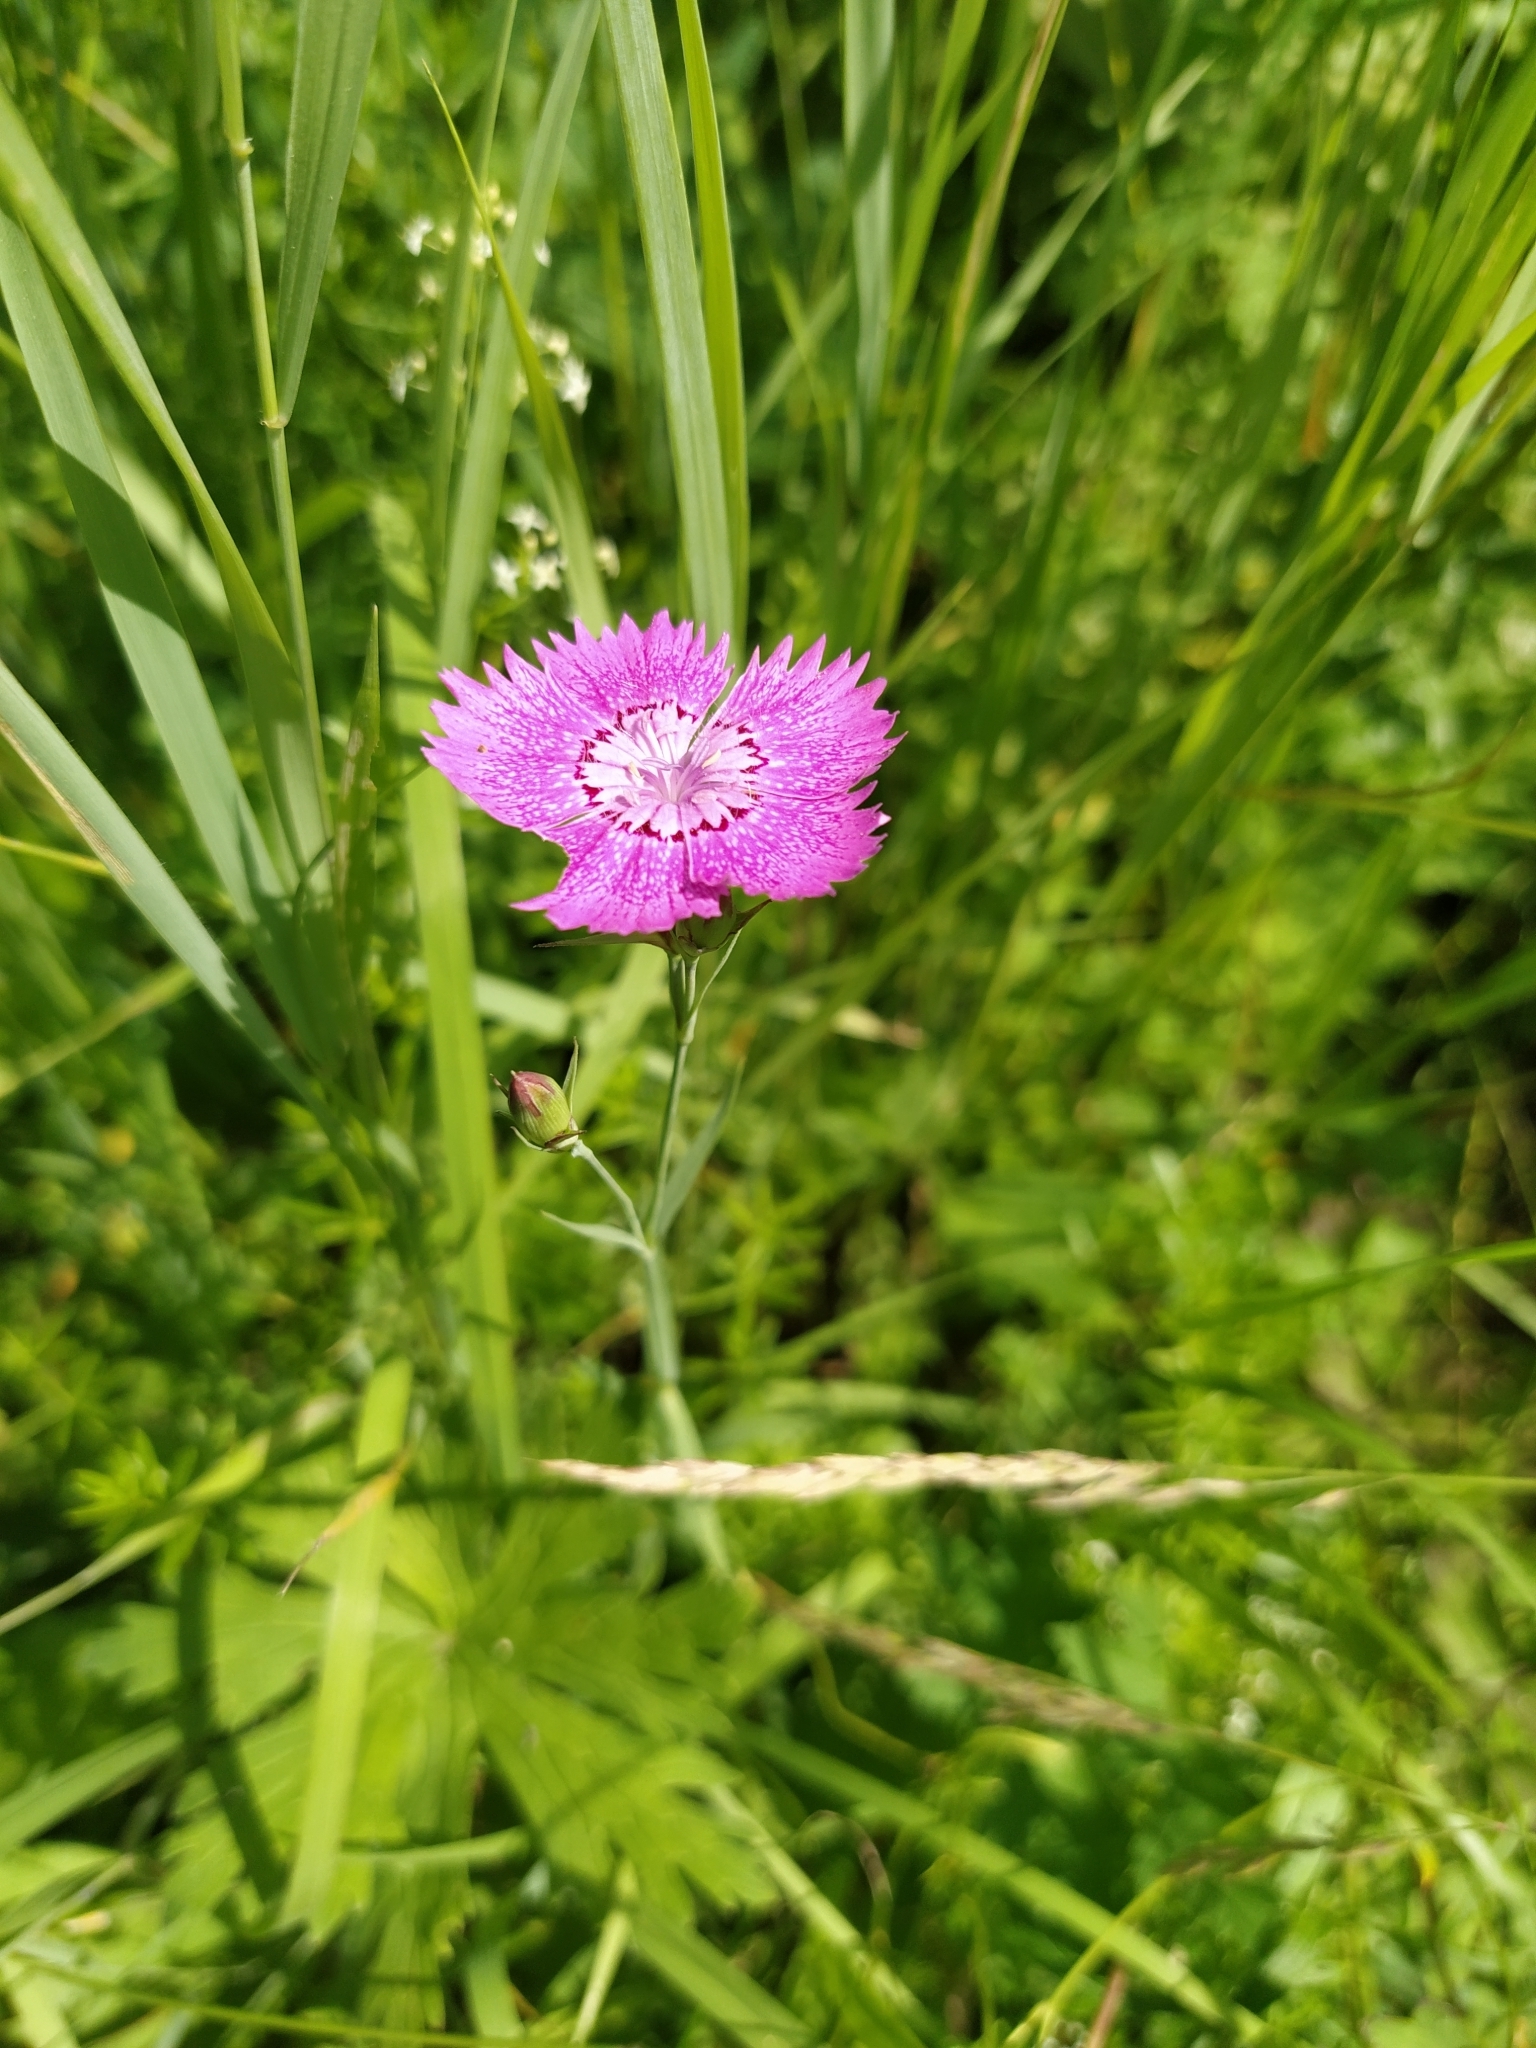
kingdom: Plantae
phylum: Tracheophyta
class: Magnoliopsida
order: Caryophyllales
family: Caryophyllaceae
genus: Dianthus
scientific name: Dianthus chinensis
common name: Rainbow pink
